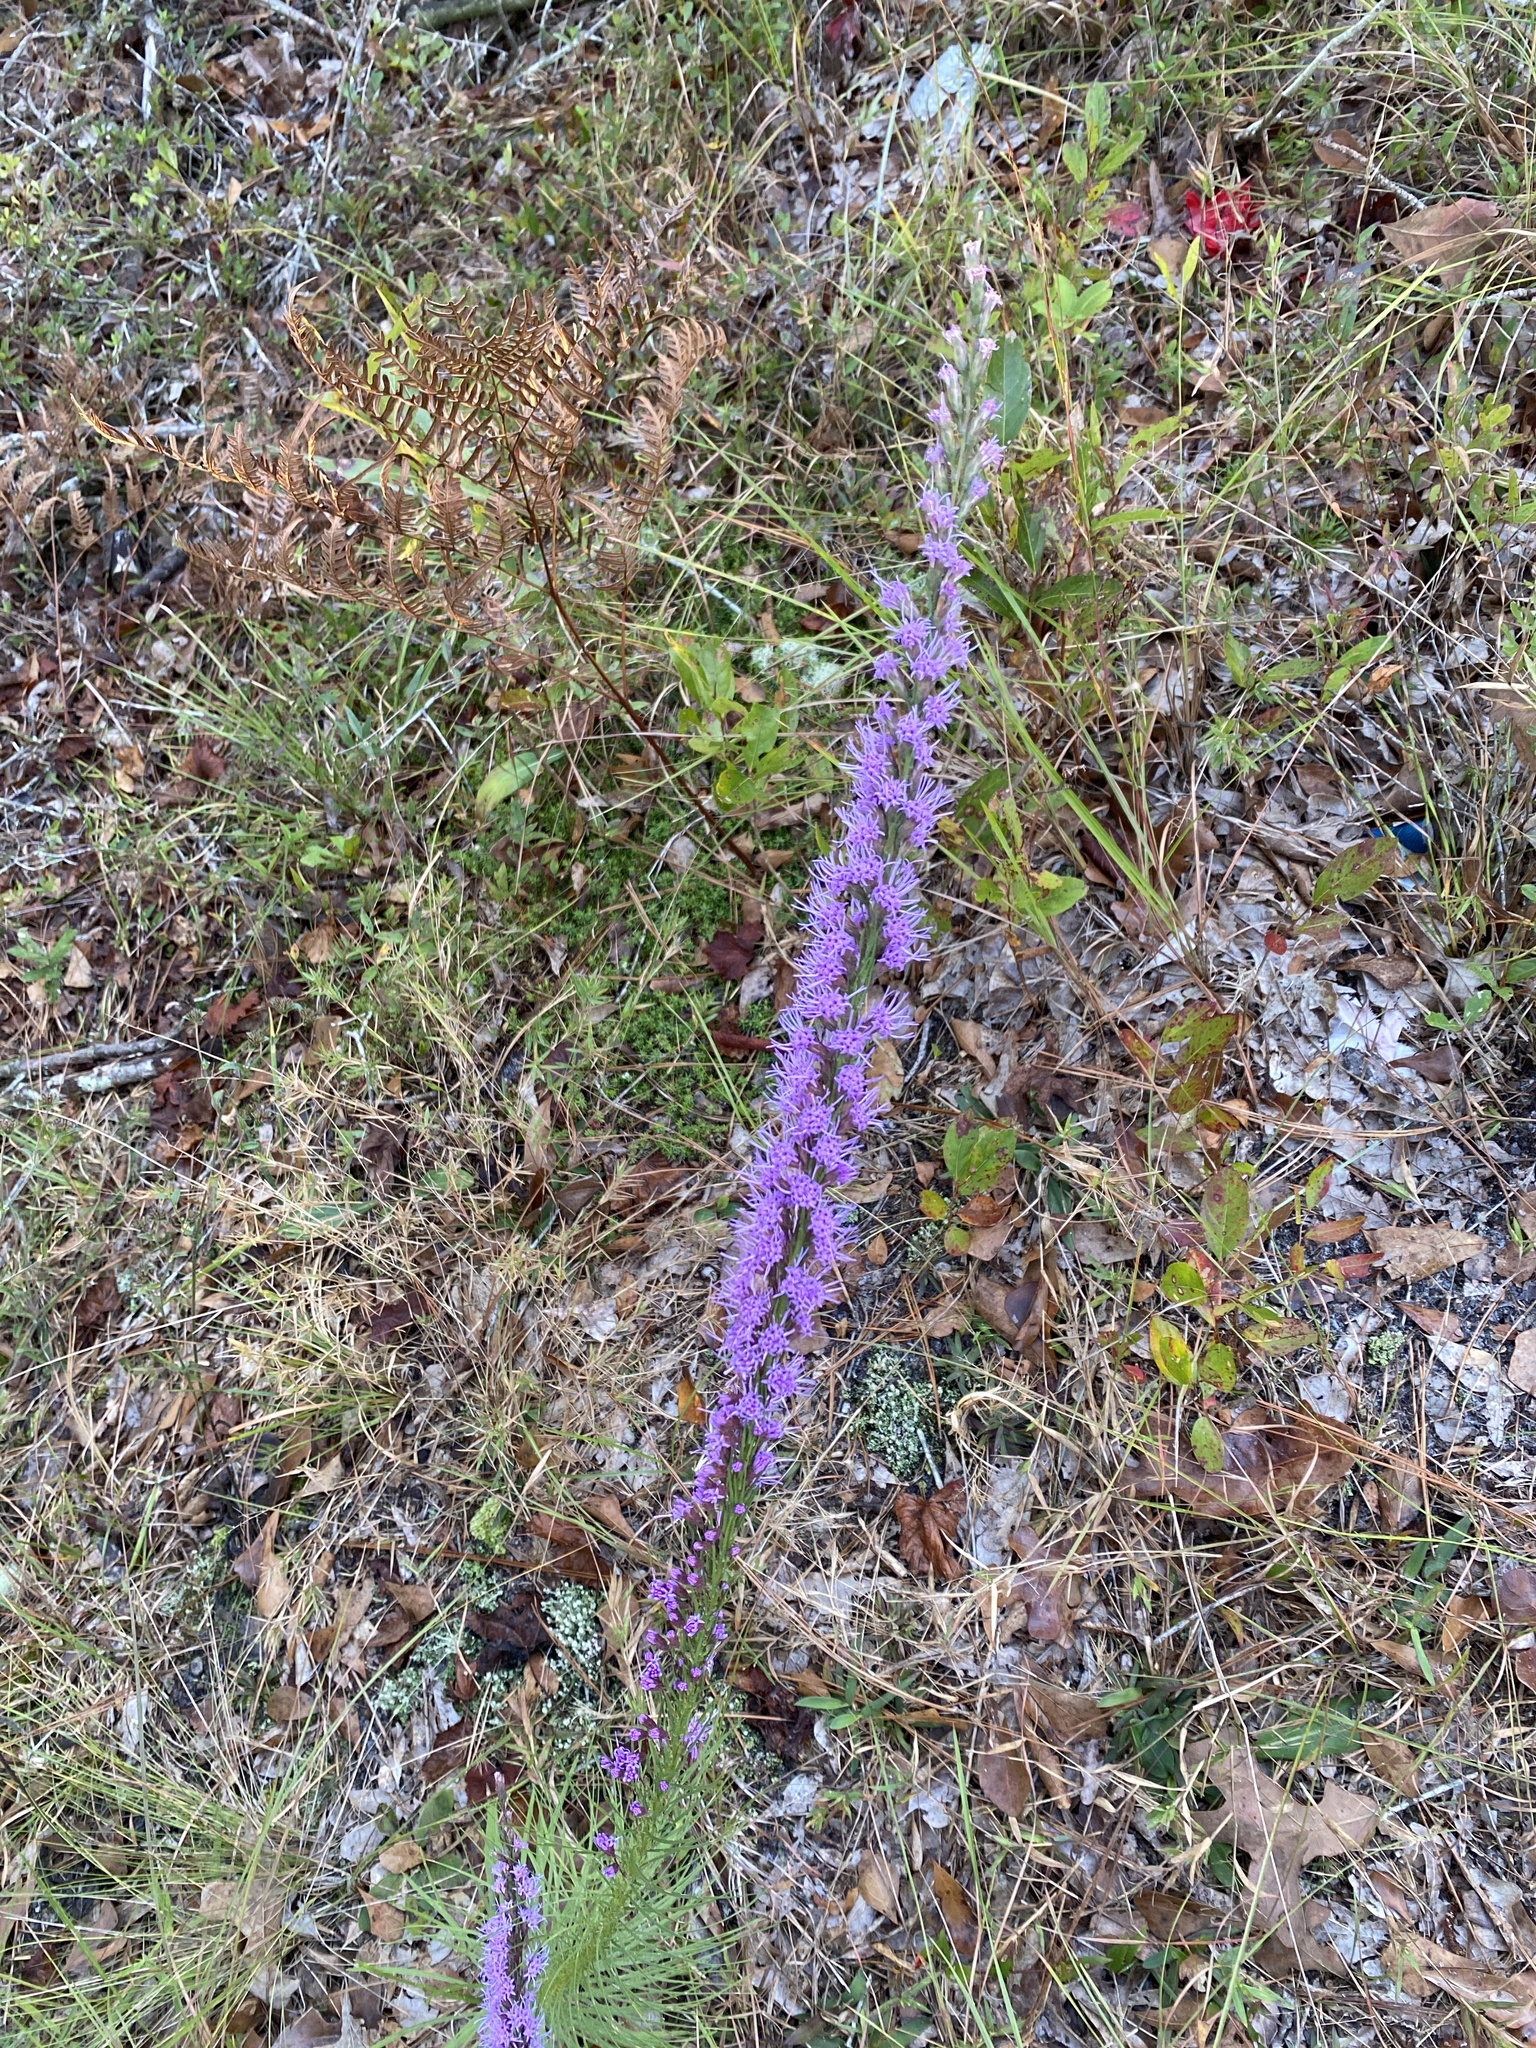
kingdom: Plantae
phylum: Tracheophyta
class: Magnoliopsida
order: Asterales
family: Asteraceae
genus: Liatris
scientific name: Liatris pilosa
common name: Grass-leaf gayfeather
